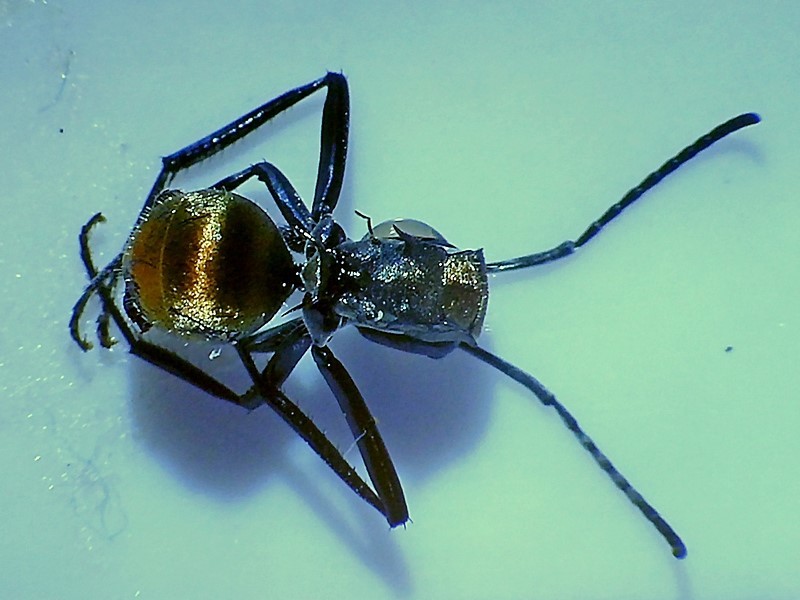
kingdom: Animalia
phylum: Arthropoda
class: Insecta
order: Hymenoptera
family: Formicidae
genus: Polyrhachis
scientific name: Polyrhachis ammon
